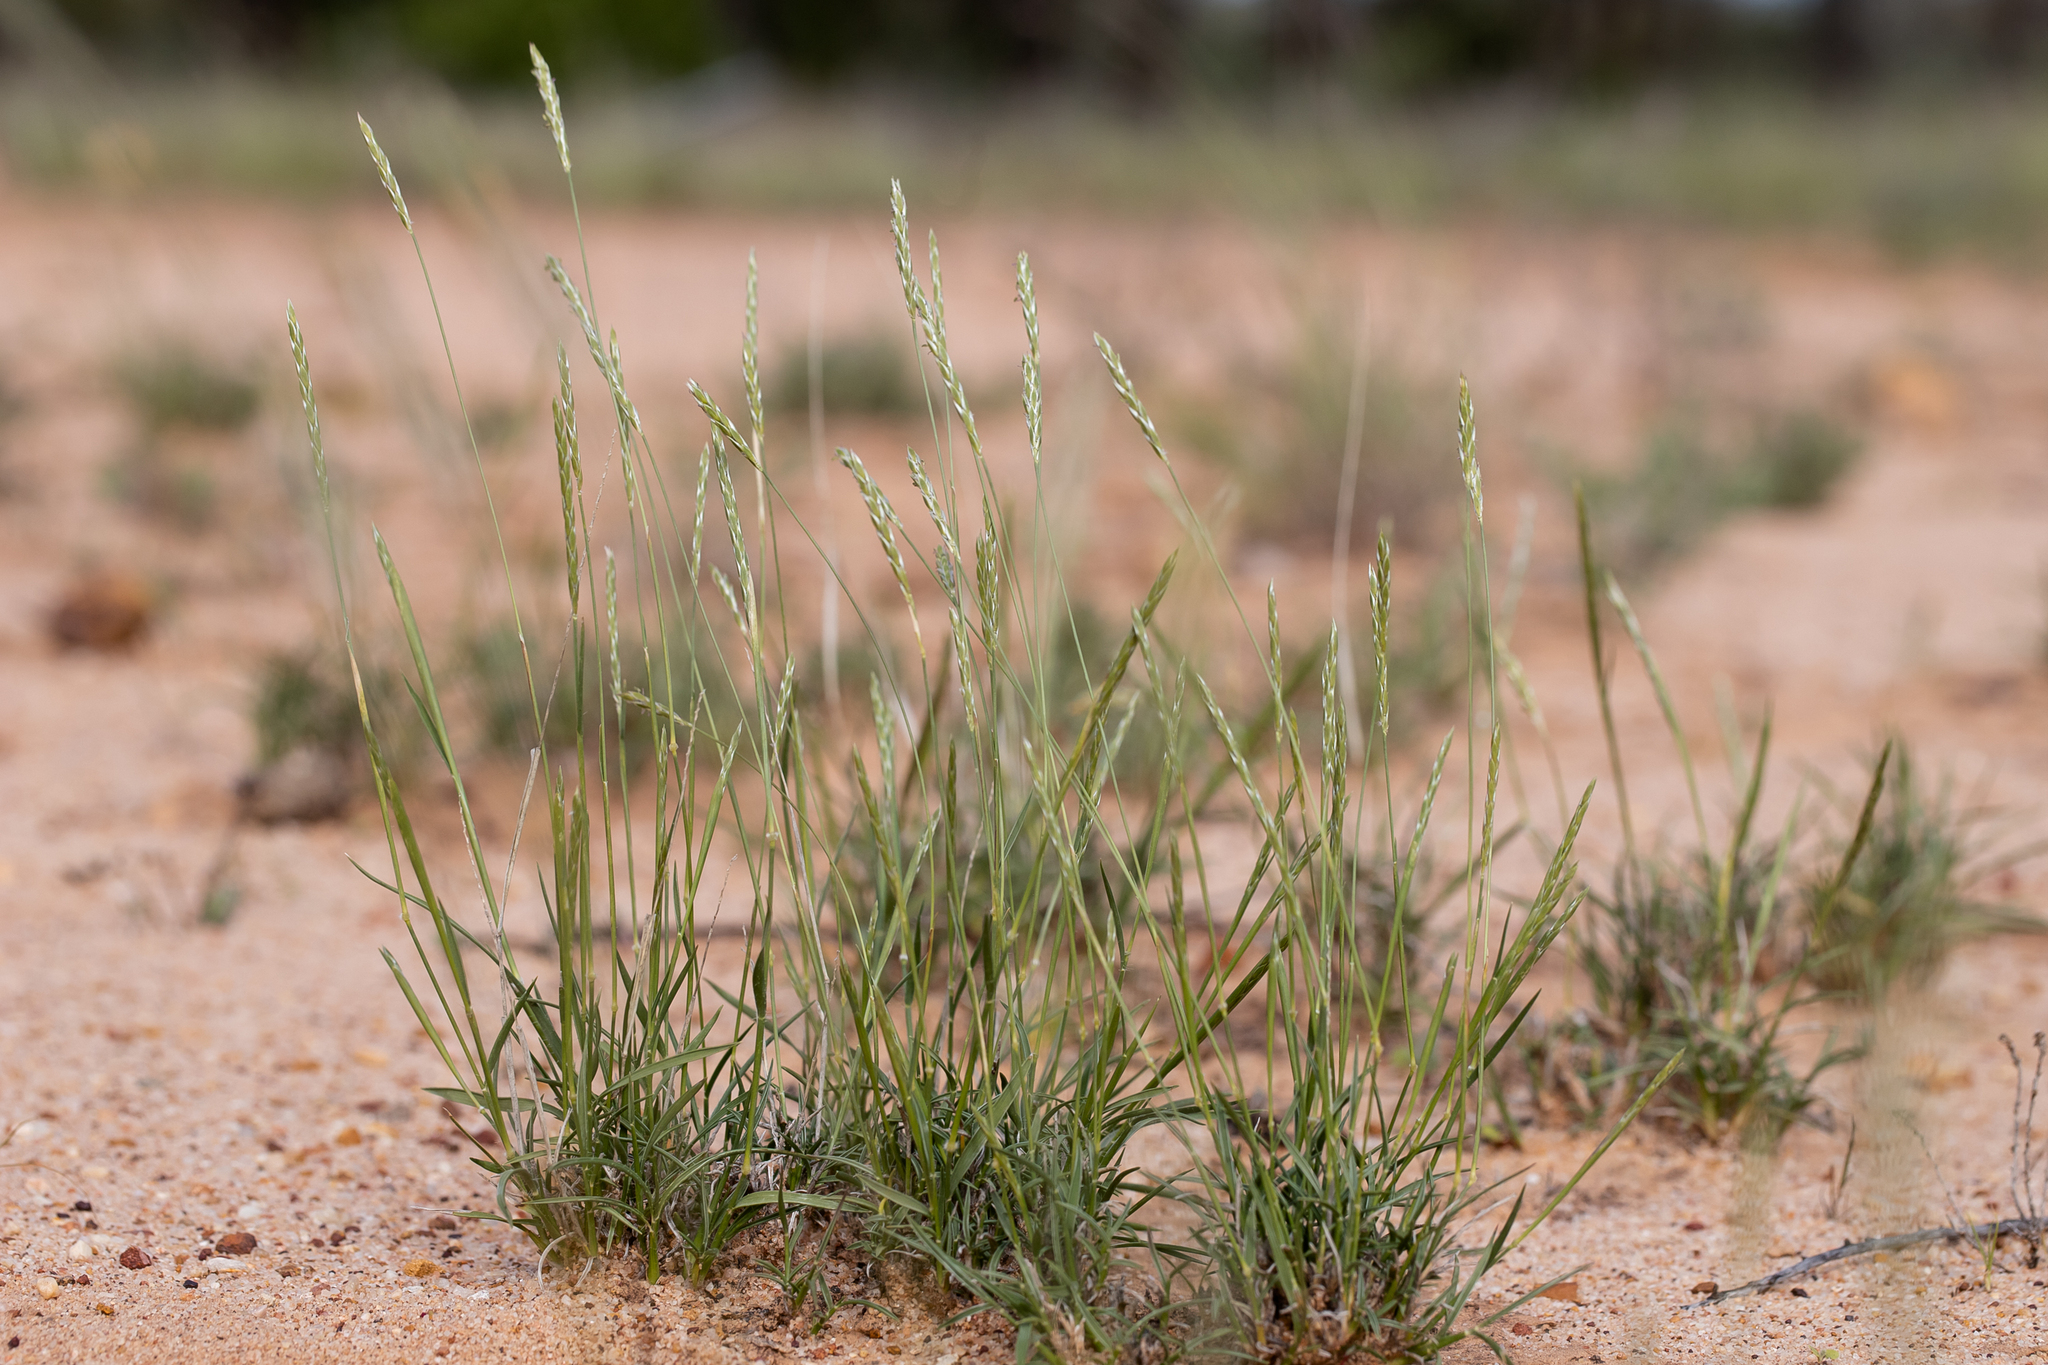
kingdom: Plantae
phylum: Tracheophyta
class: Liliopsida
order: Poales
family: Poaceae
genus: Neurachne
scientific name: Neurachne munroi
